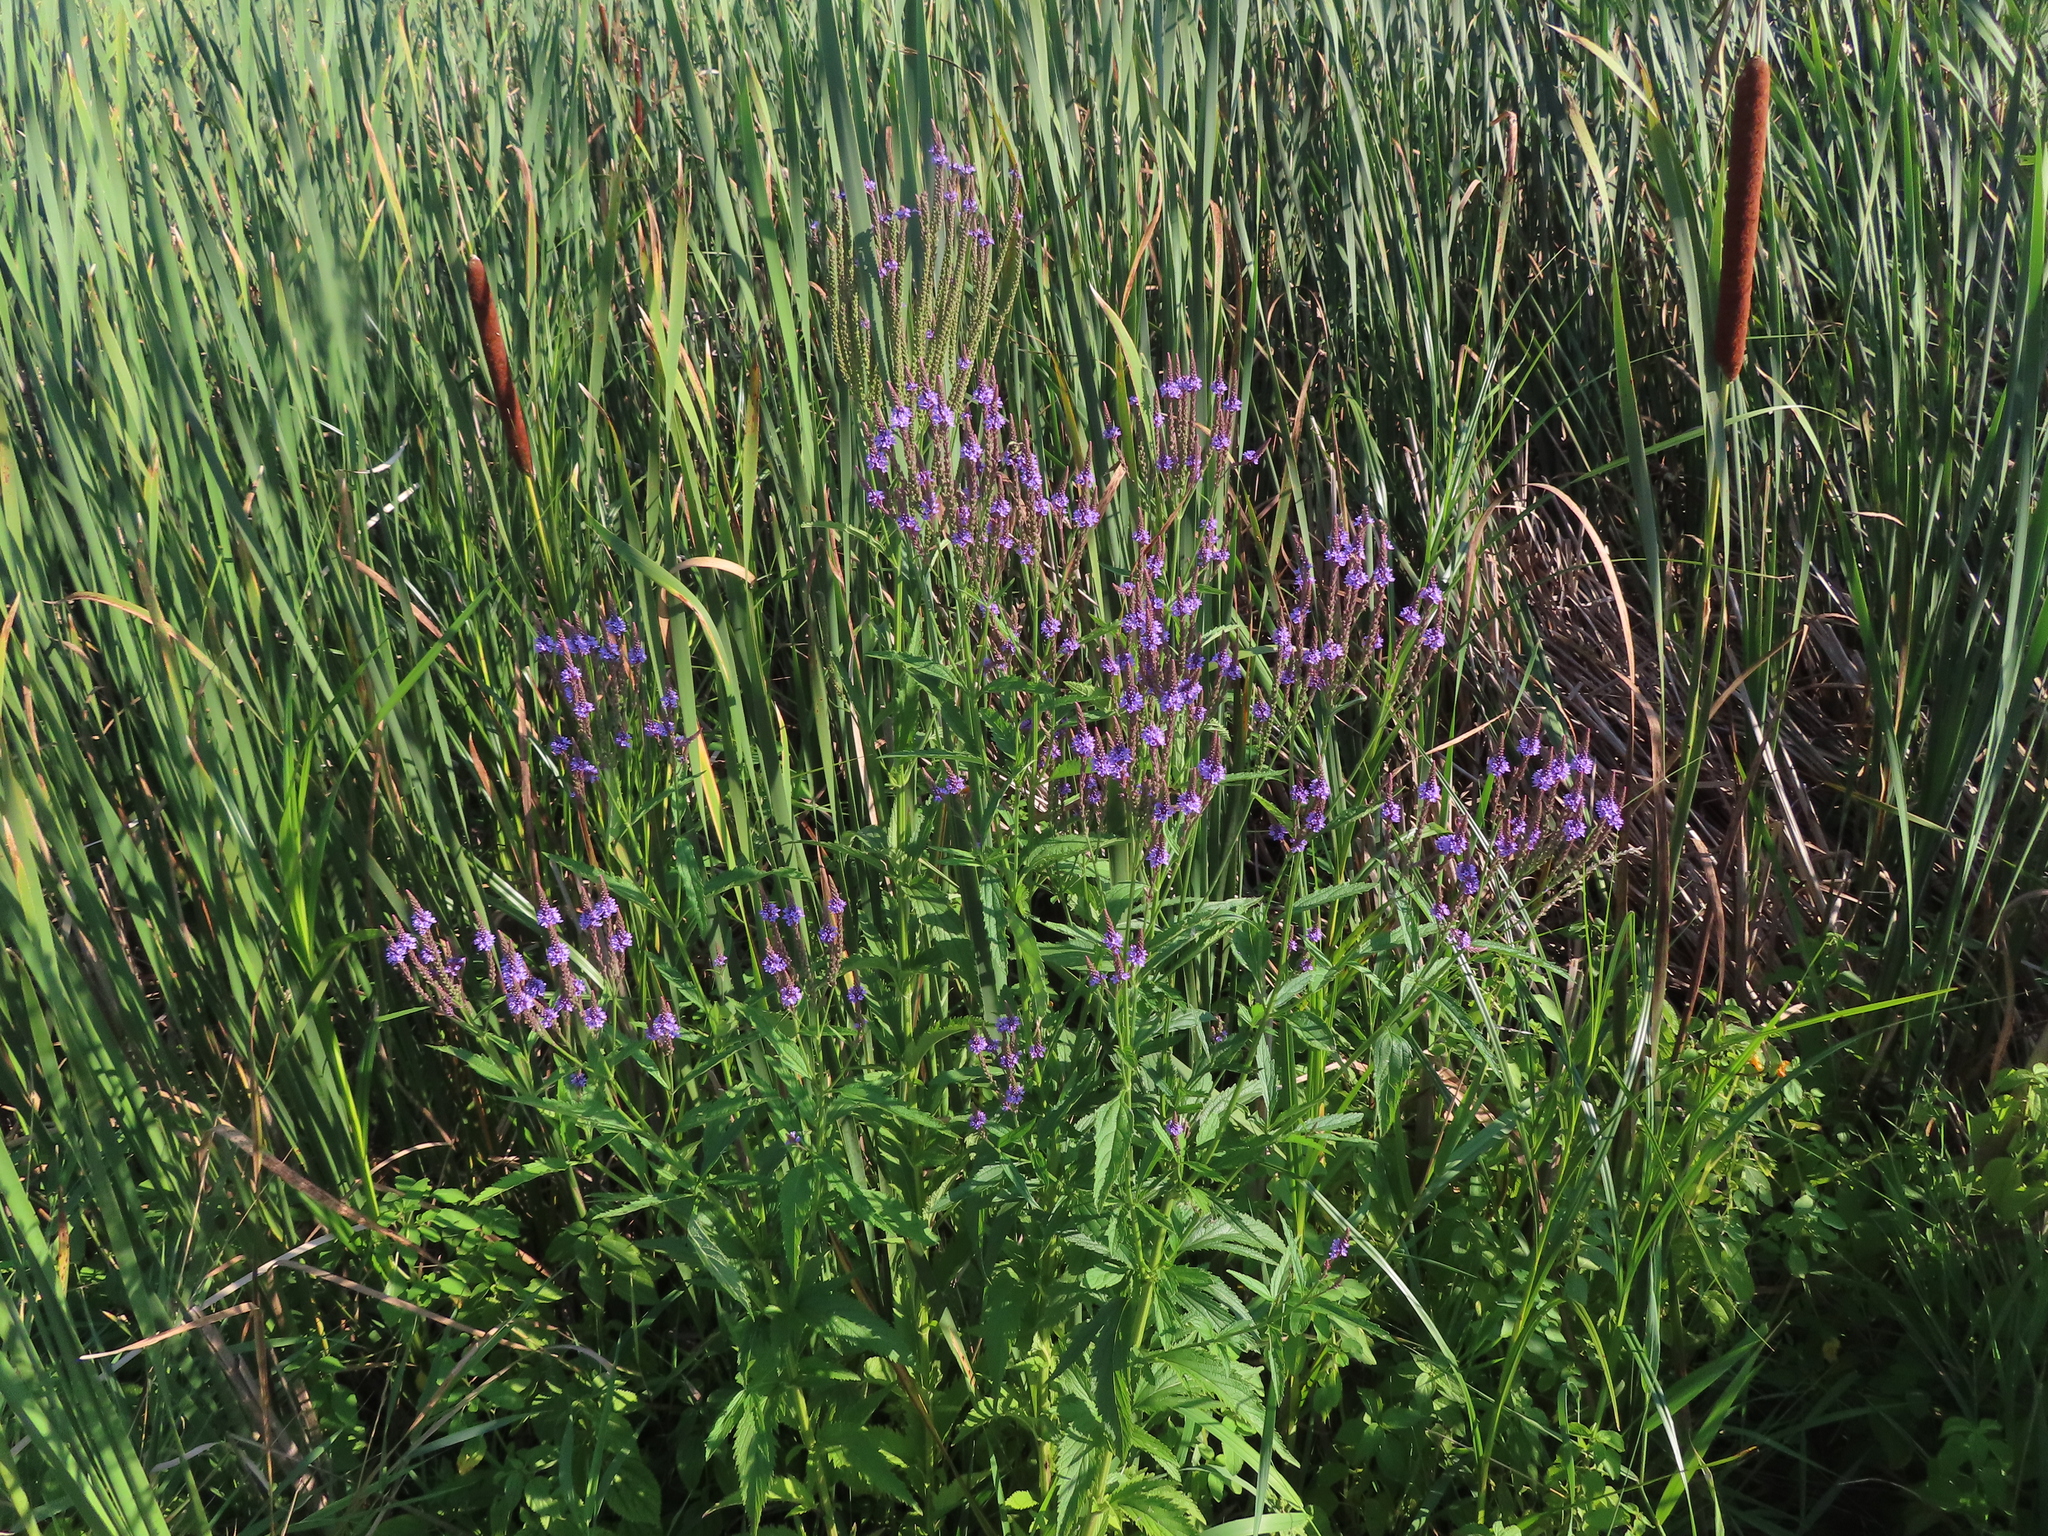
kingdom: Plantae
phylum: Tracheophyta
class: Magnoliopsida
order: Lamiales
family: Verbenaceae
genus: Verbena
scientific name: Verbena hastata
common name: American blue vervain
